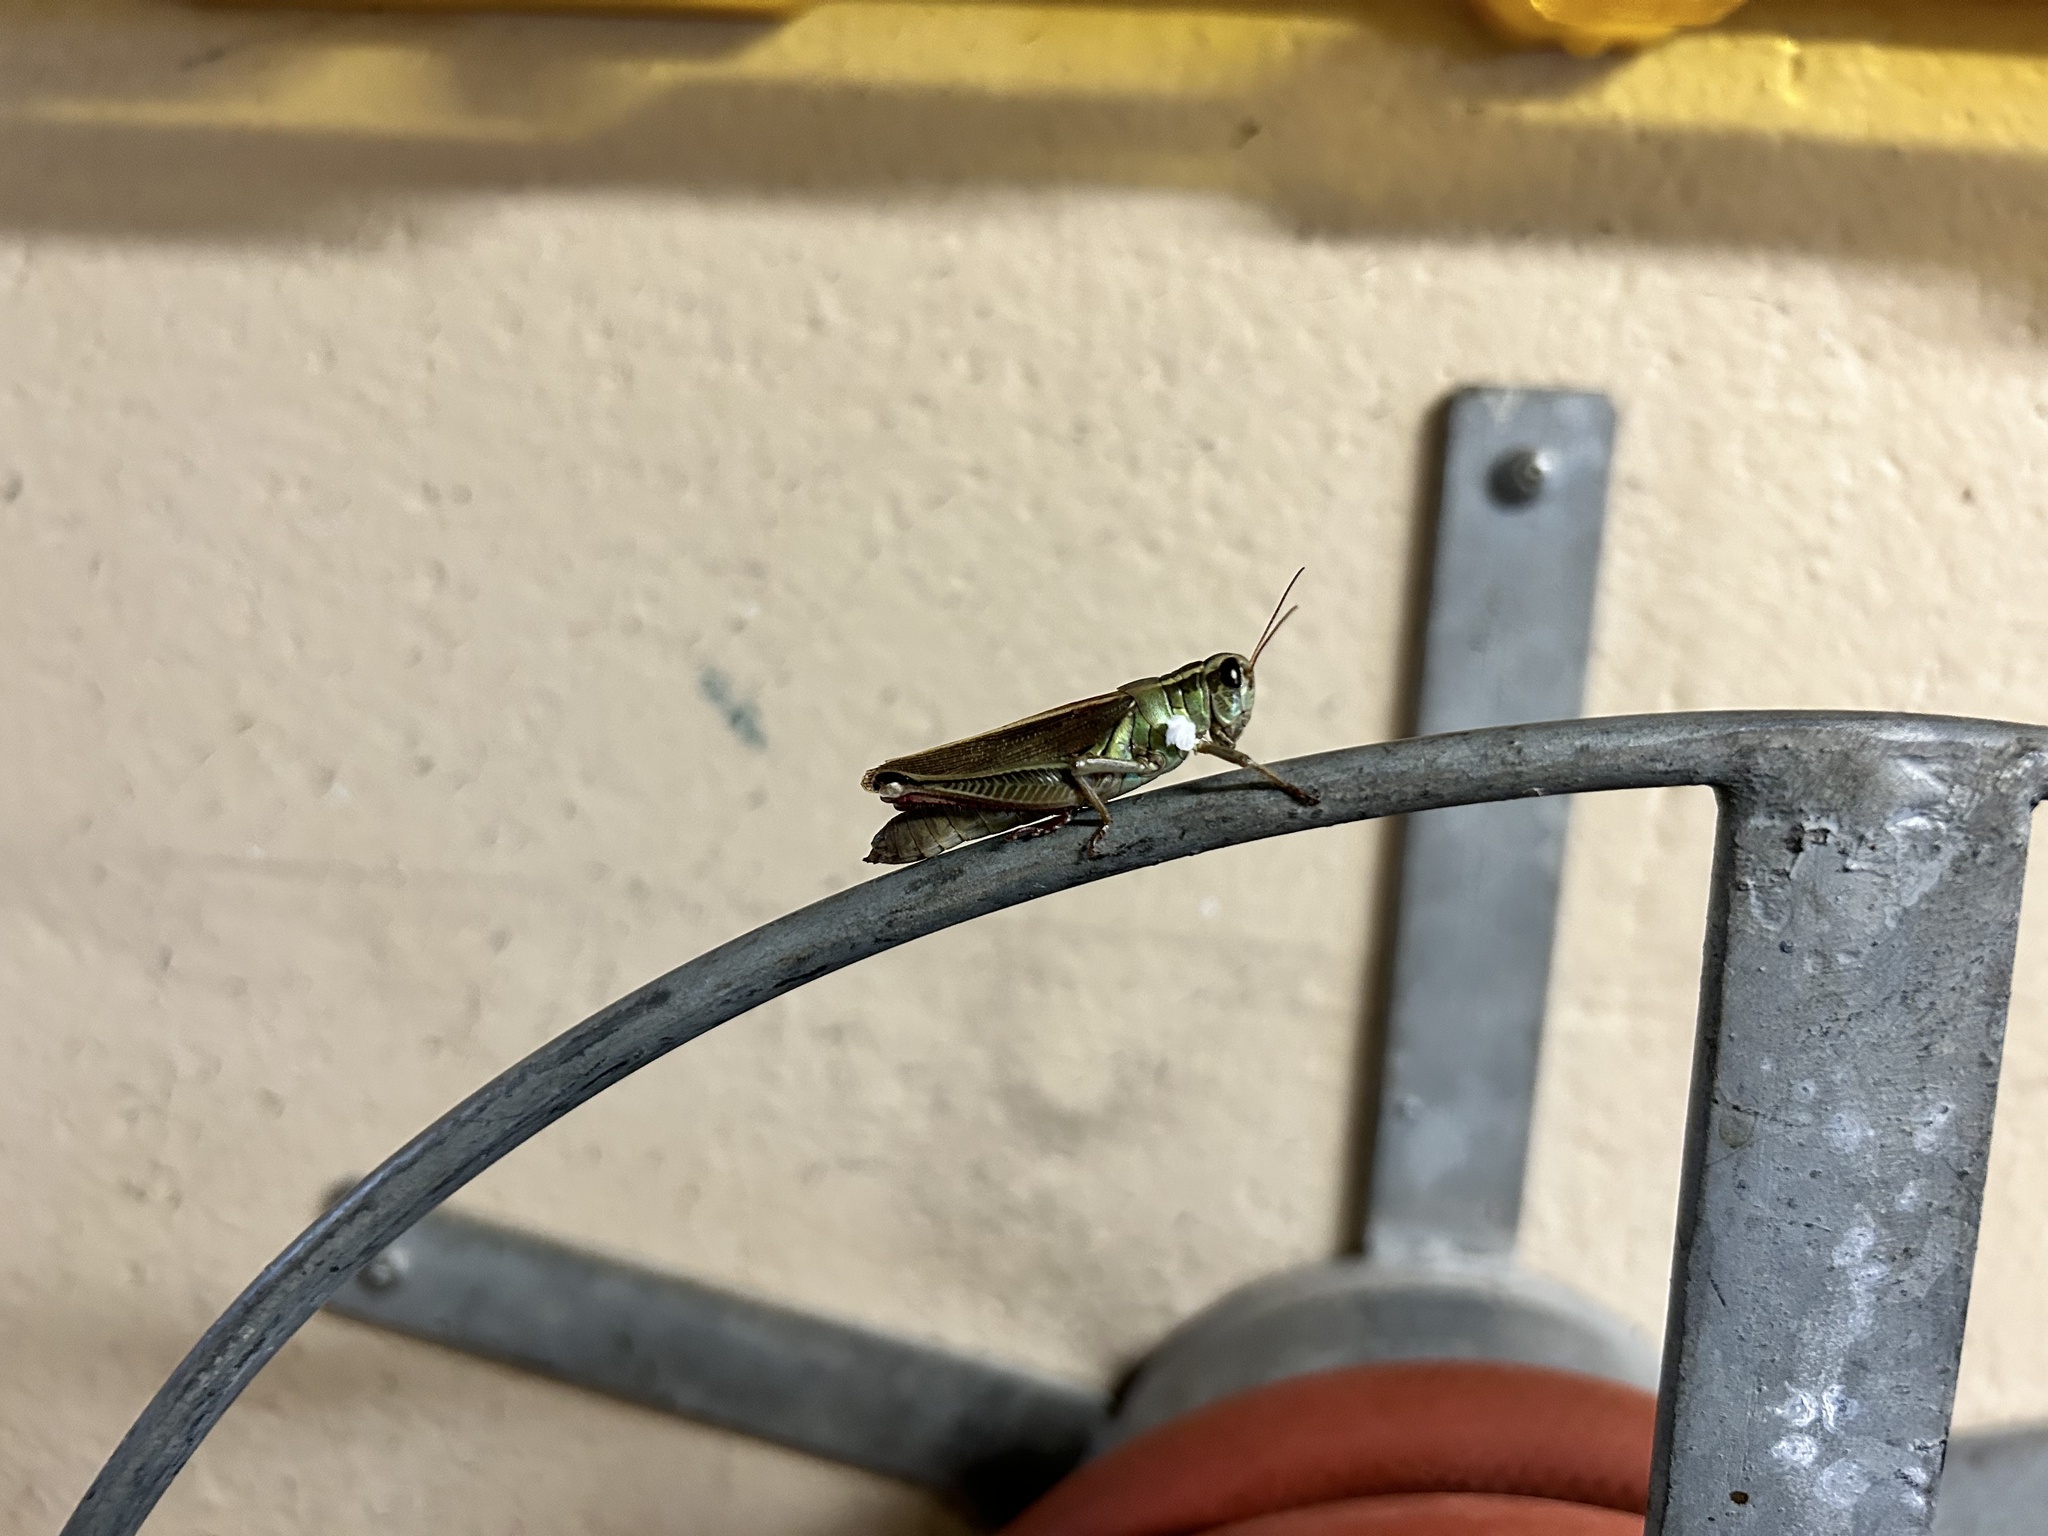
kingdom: Animalia
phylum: Arthropoda
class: Insecta
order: Orthoptera
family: Acrididae
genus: Melanoplus
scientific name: Melanoplus bivittatus
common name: Two-striped grasshopper
